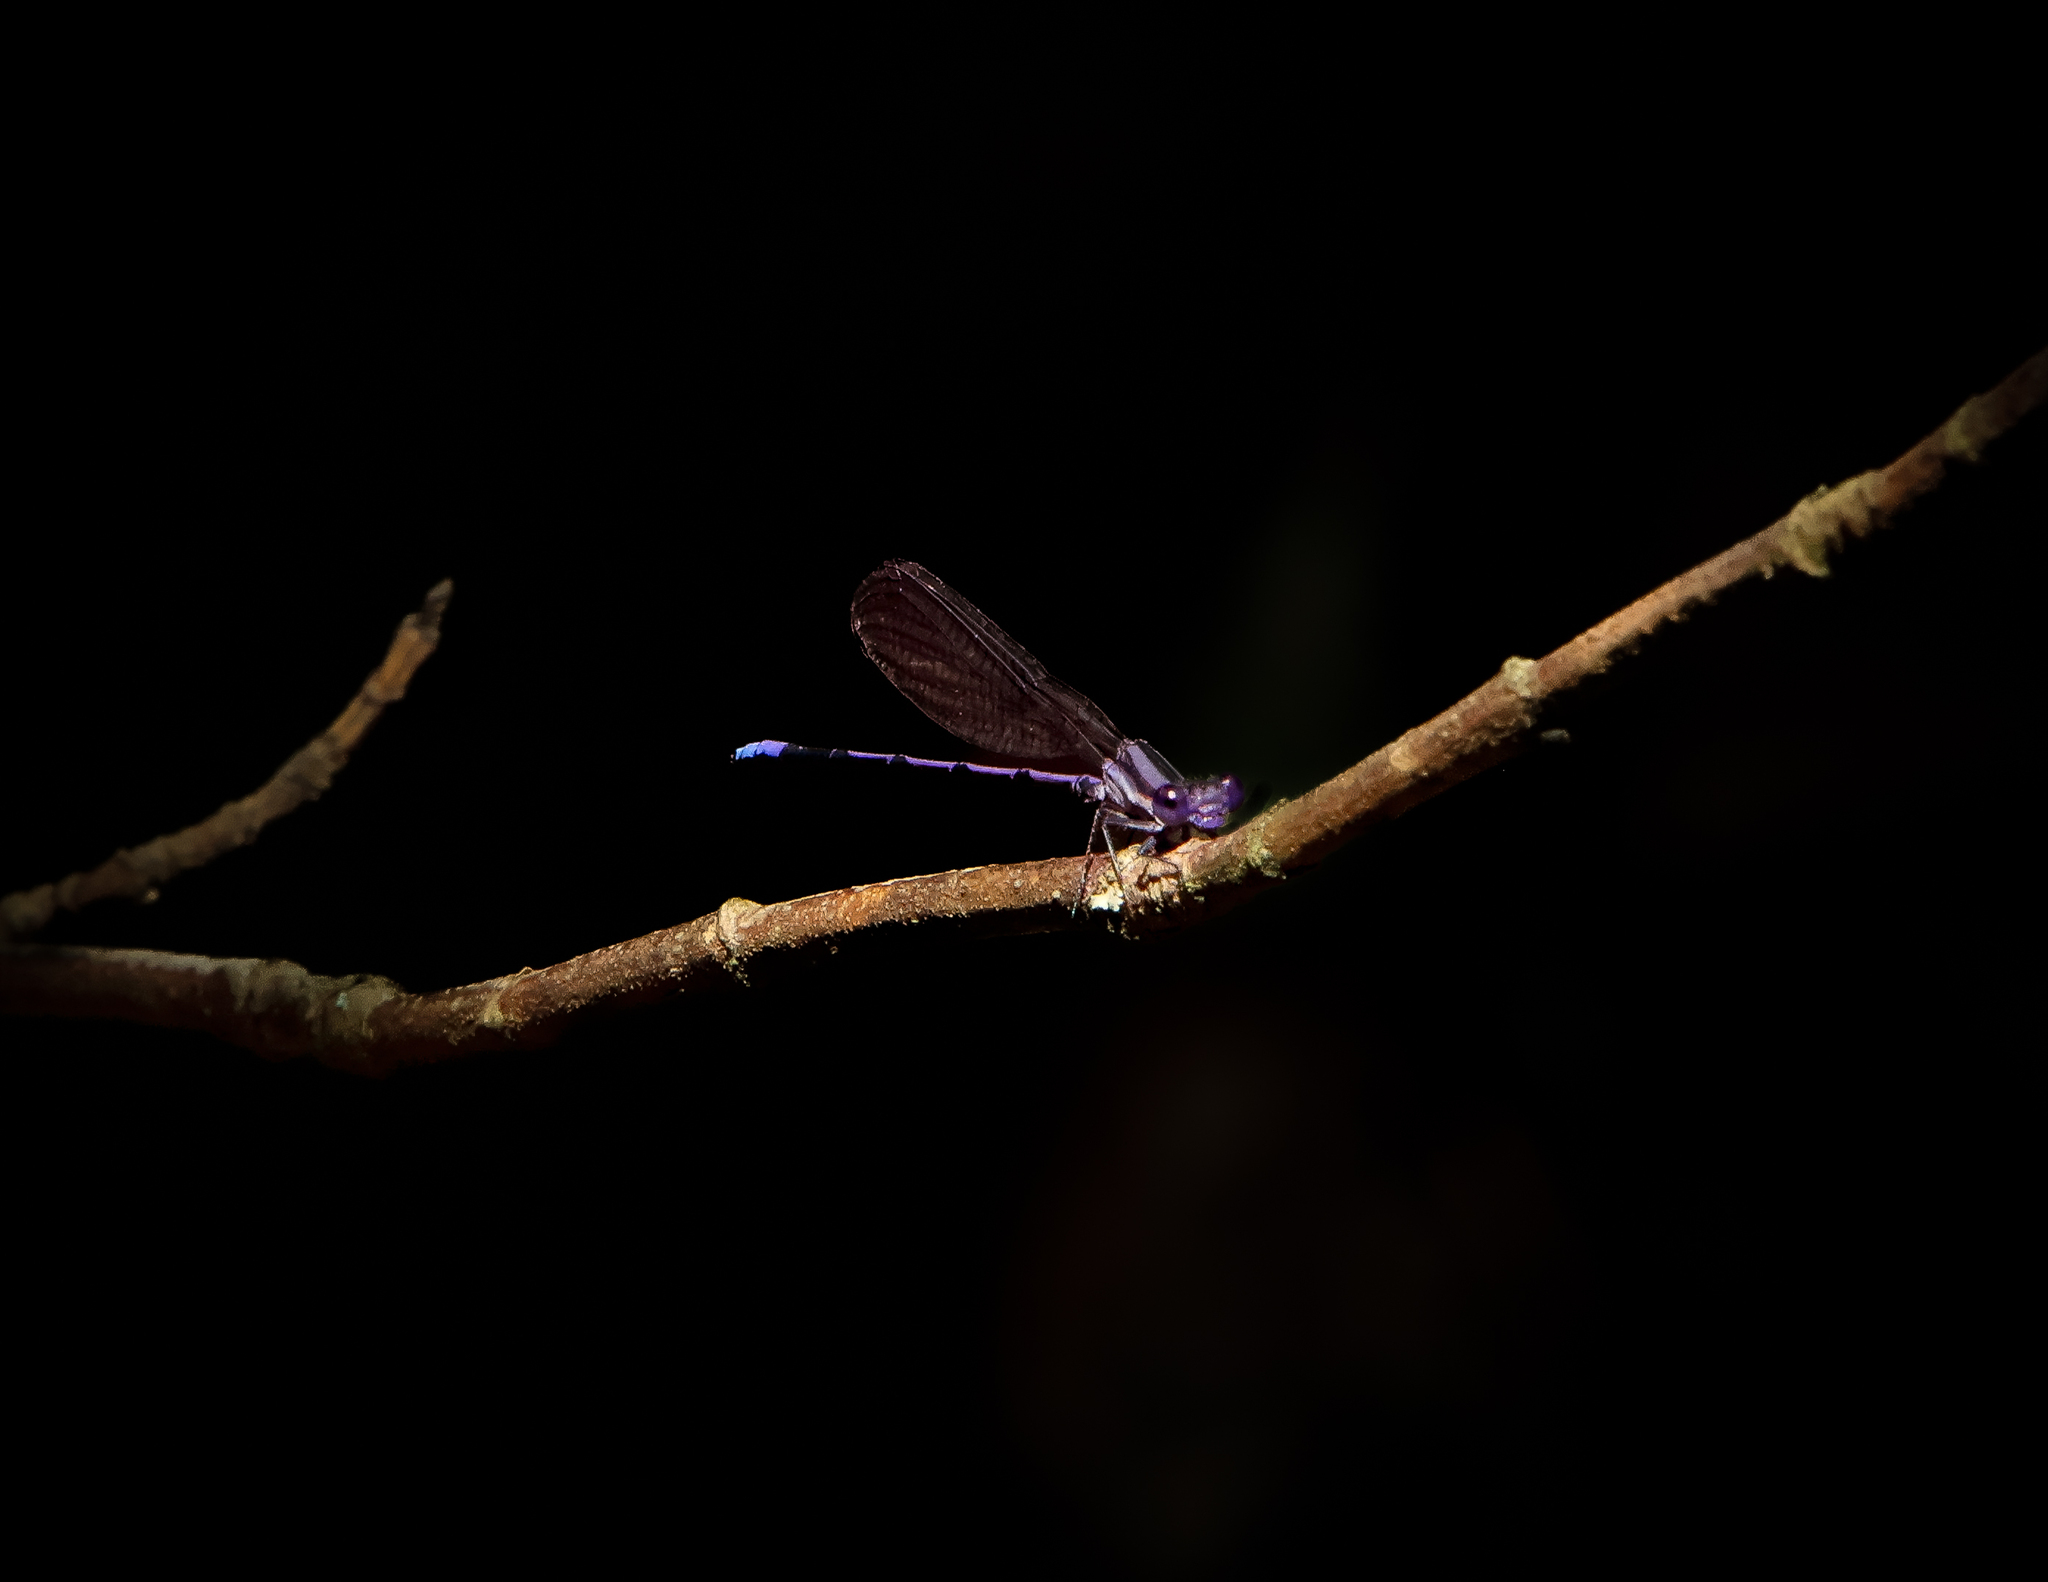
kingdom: Animalia
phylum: Arthropoda
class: Insecta
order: Odonata
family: Coenagrionidae
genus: Argia
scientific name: Argia fumipennis
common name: Variable dancer
